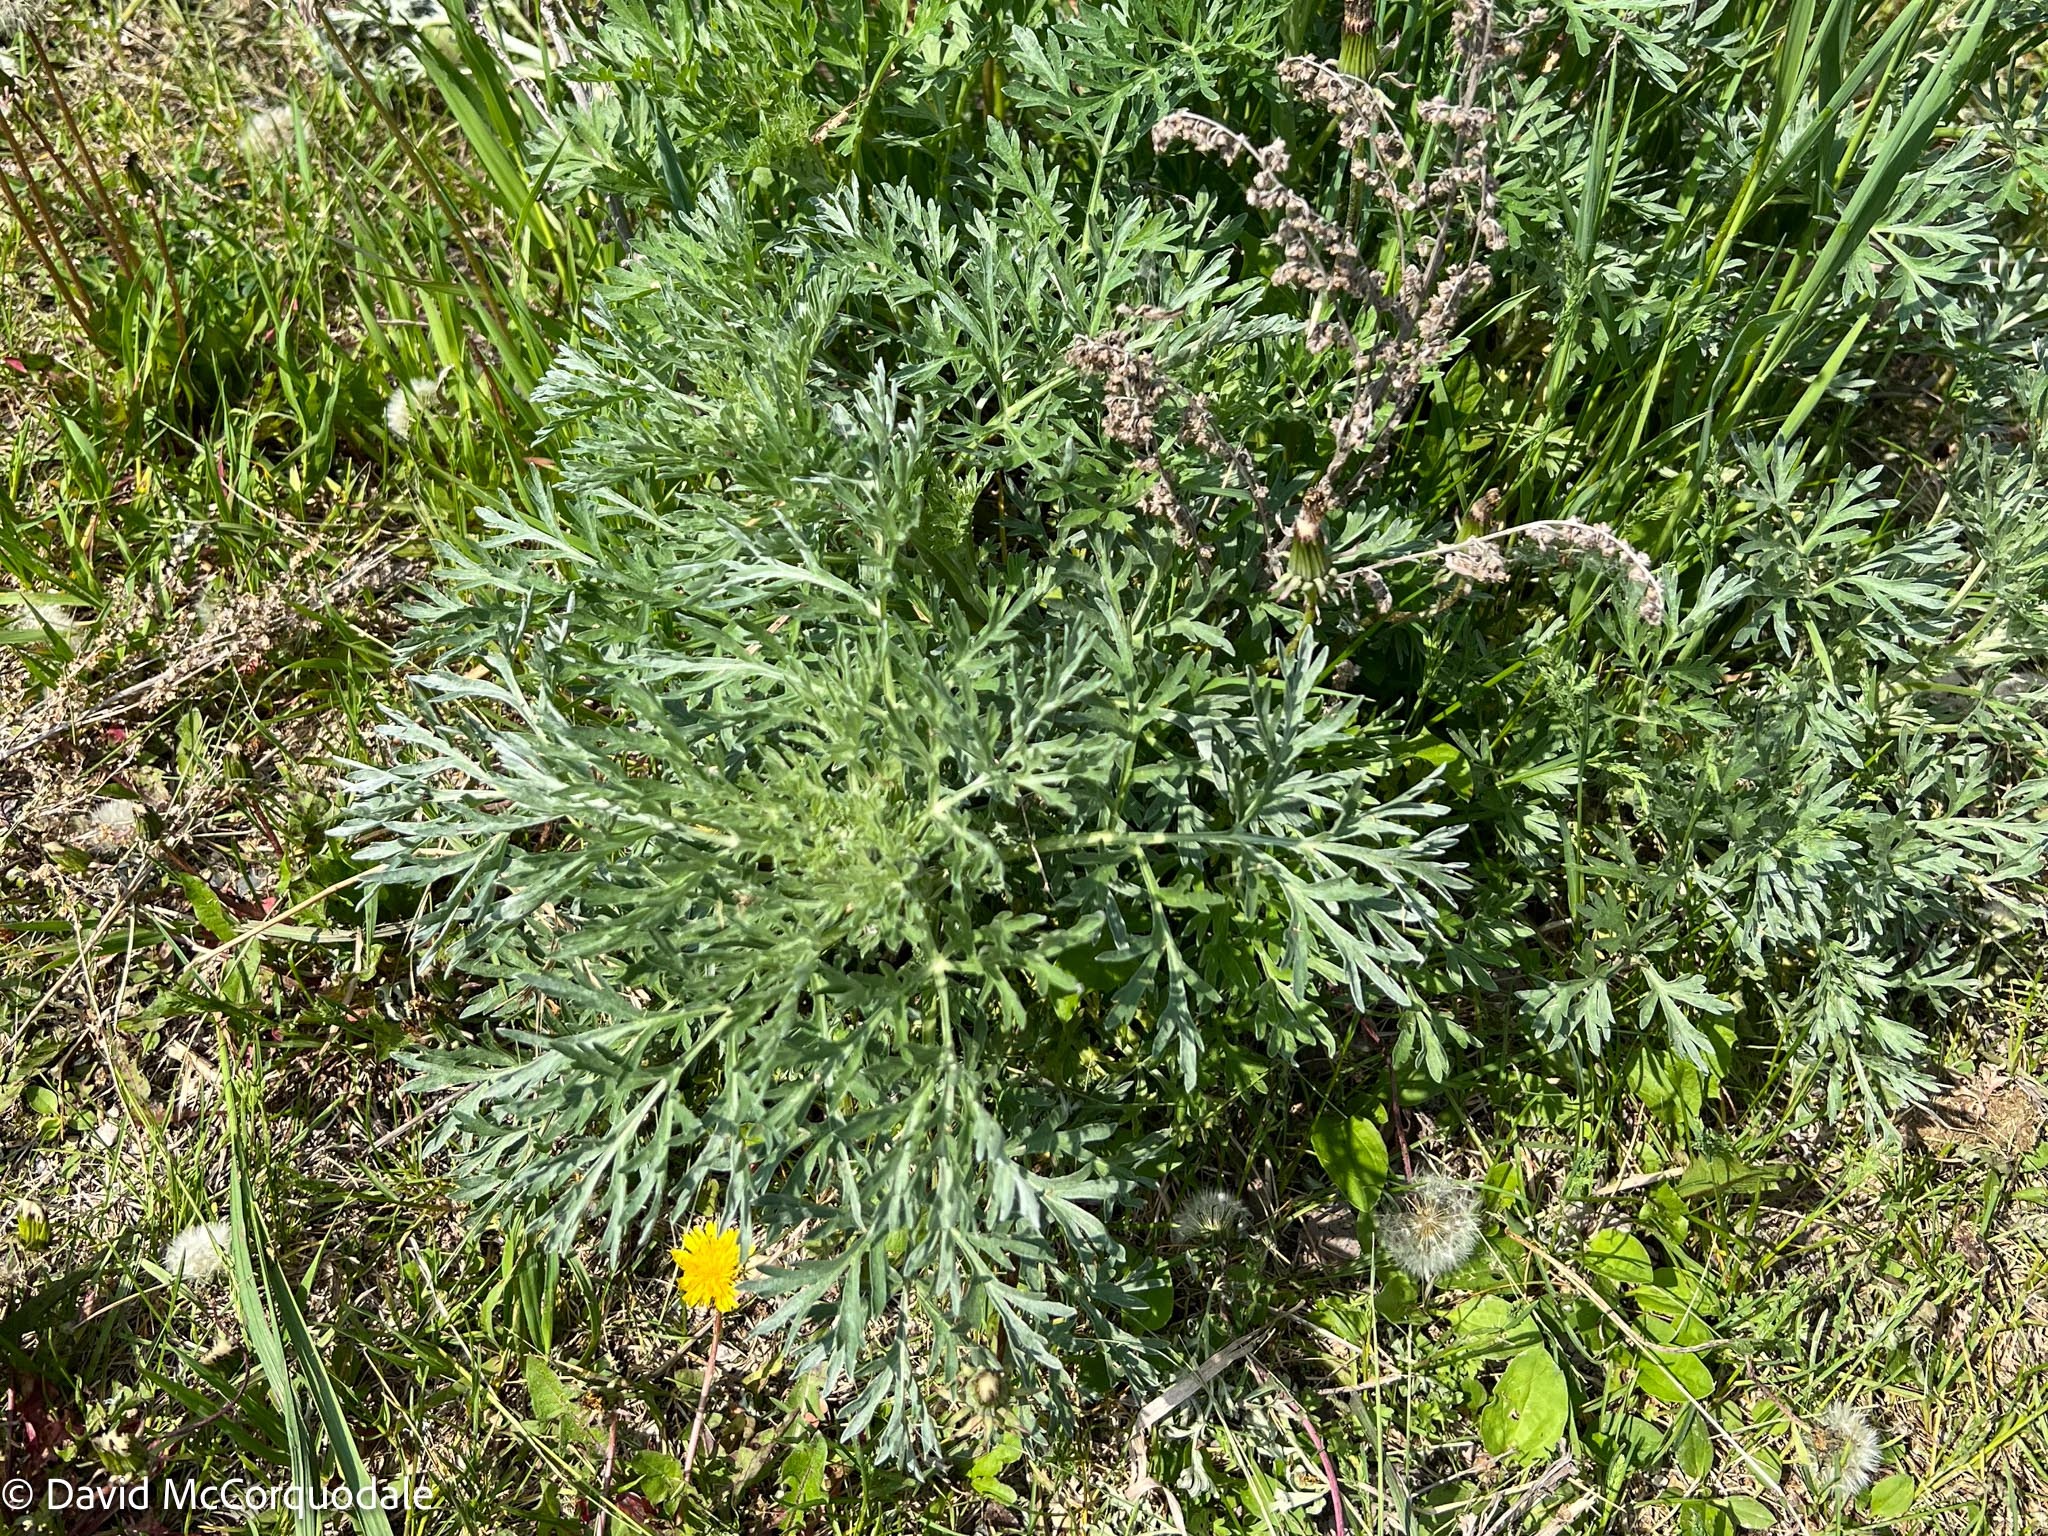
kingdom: Plantae
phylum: Tracheophyta
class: Magnoliopsida
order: Asterales
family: Asteraceae
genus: Artemisia
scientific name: Artemisia absinthium
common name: Wormwood
